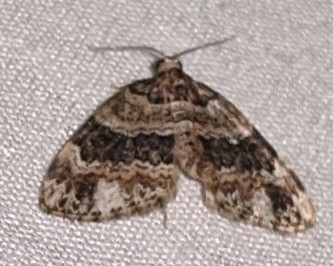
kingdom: Animalia
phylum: Arthropoda
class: Insecta
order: Lepidoptera
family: Geometridae
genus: Martania
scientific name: Martania
